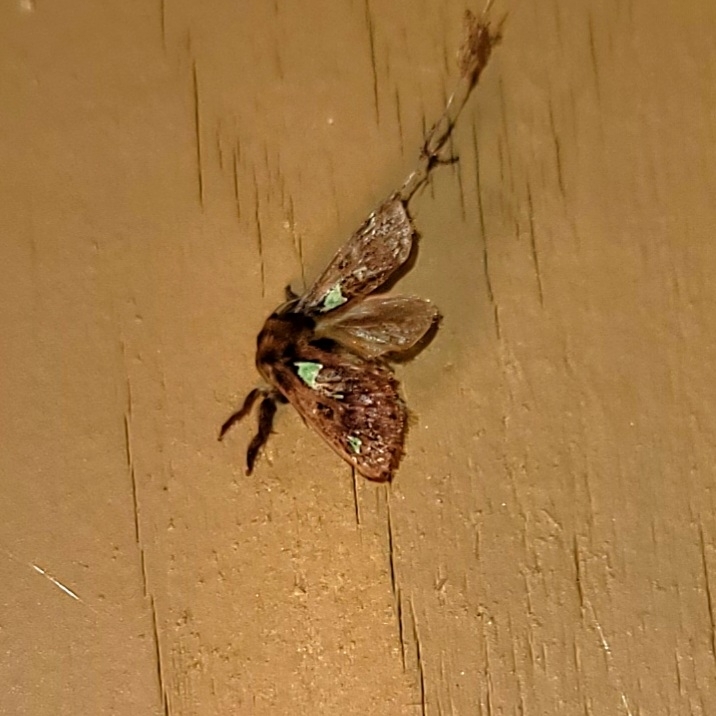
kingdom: Animalia
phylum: Arthropoda
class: Insecta
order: Lepidoptera
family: Limacodidae
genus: Euclea
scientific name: Euclea delphinii
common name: Spiny oak-slug moth
